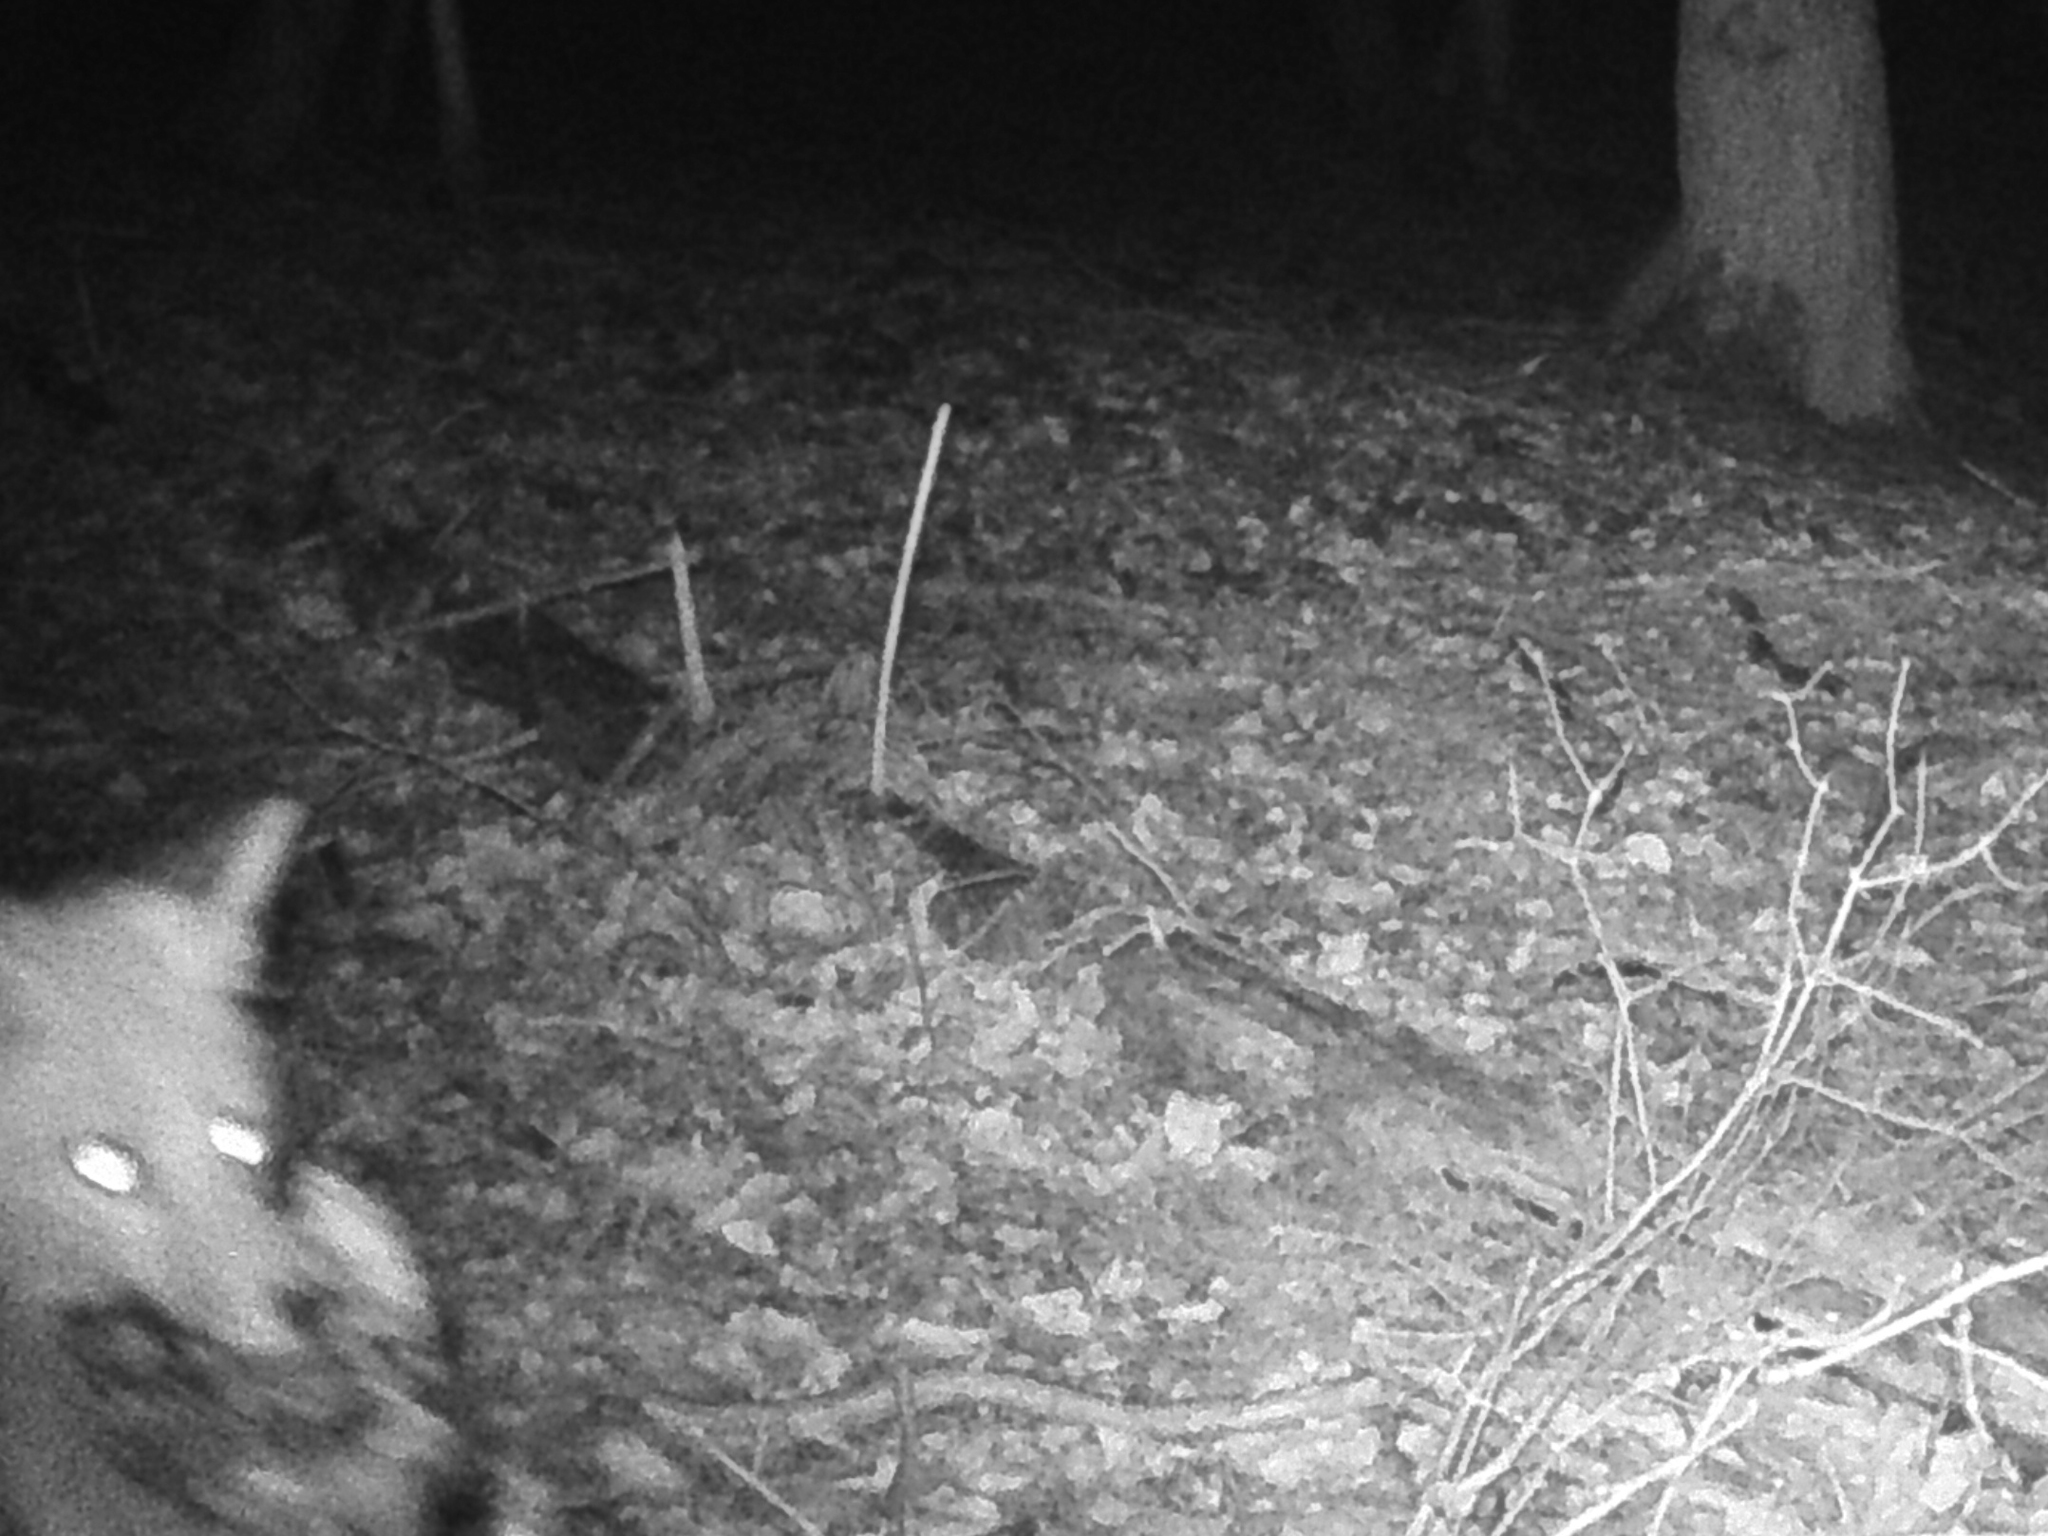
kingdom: Animalia
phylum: Chordata
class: Mammalia
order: Carnivora
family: Canidae
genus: Vulpes
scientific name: Vulpes vulpes
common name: Red fox
